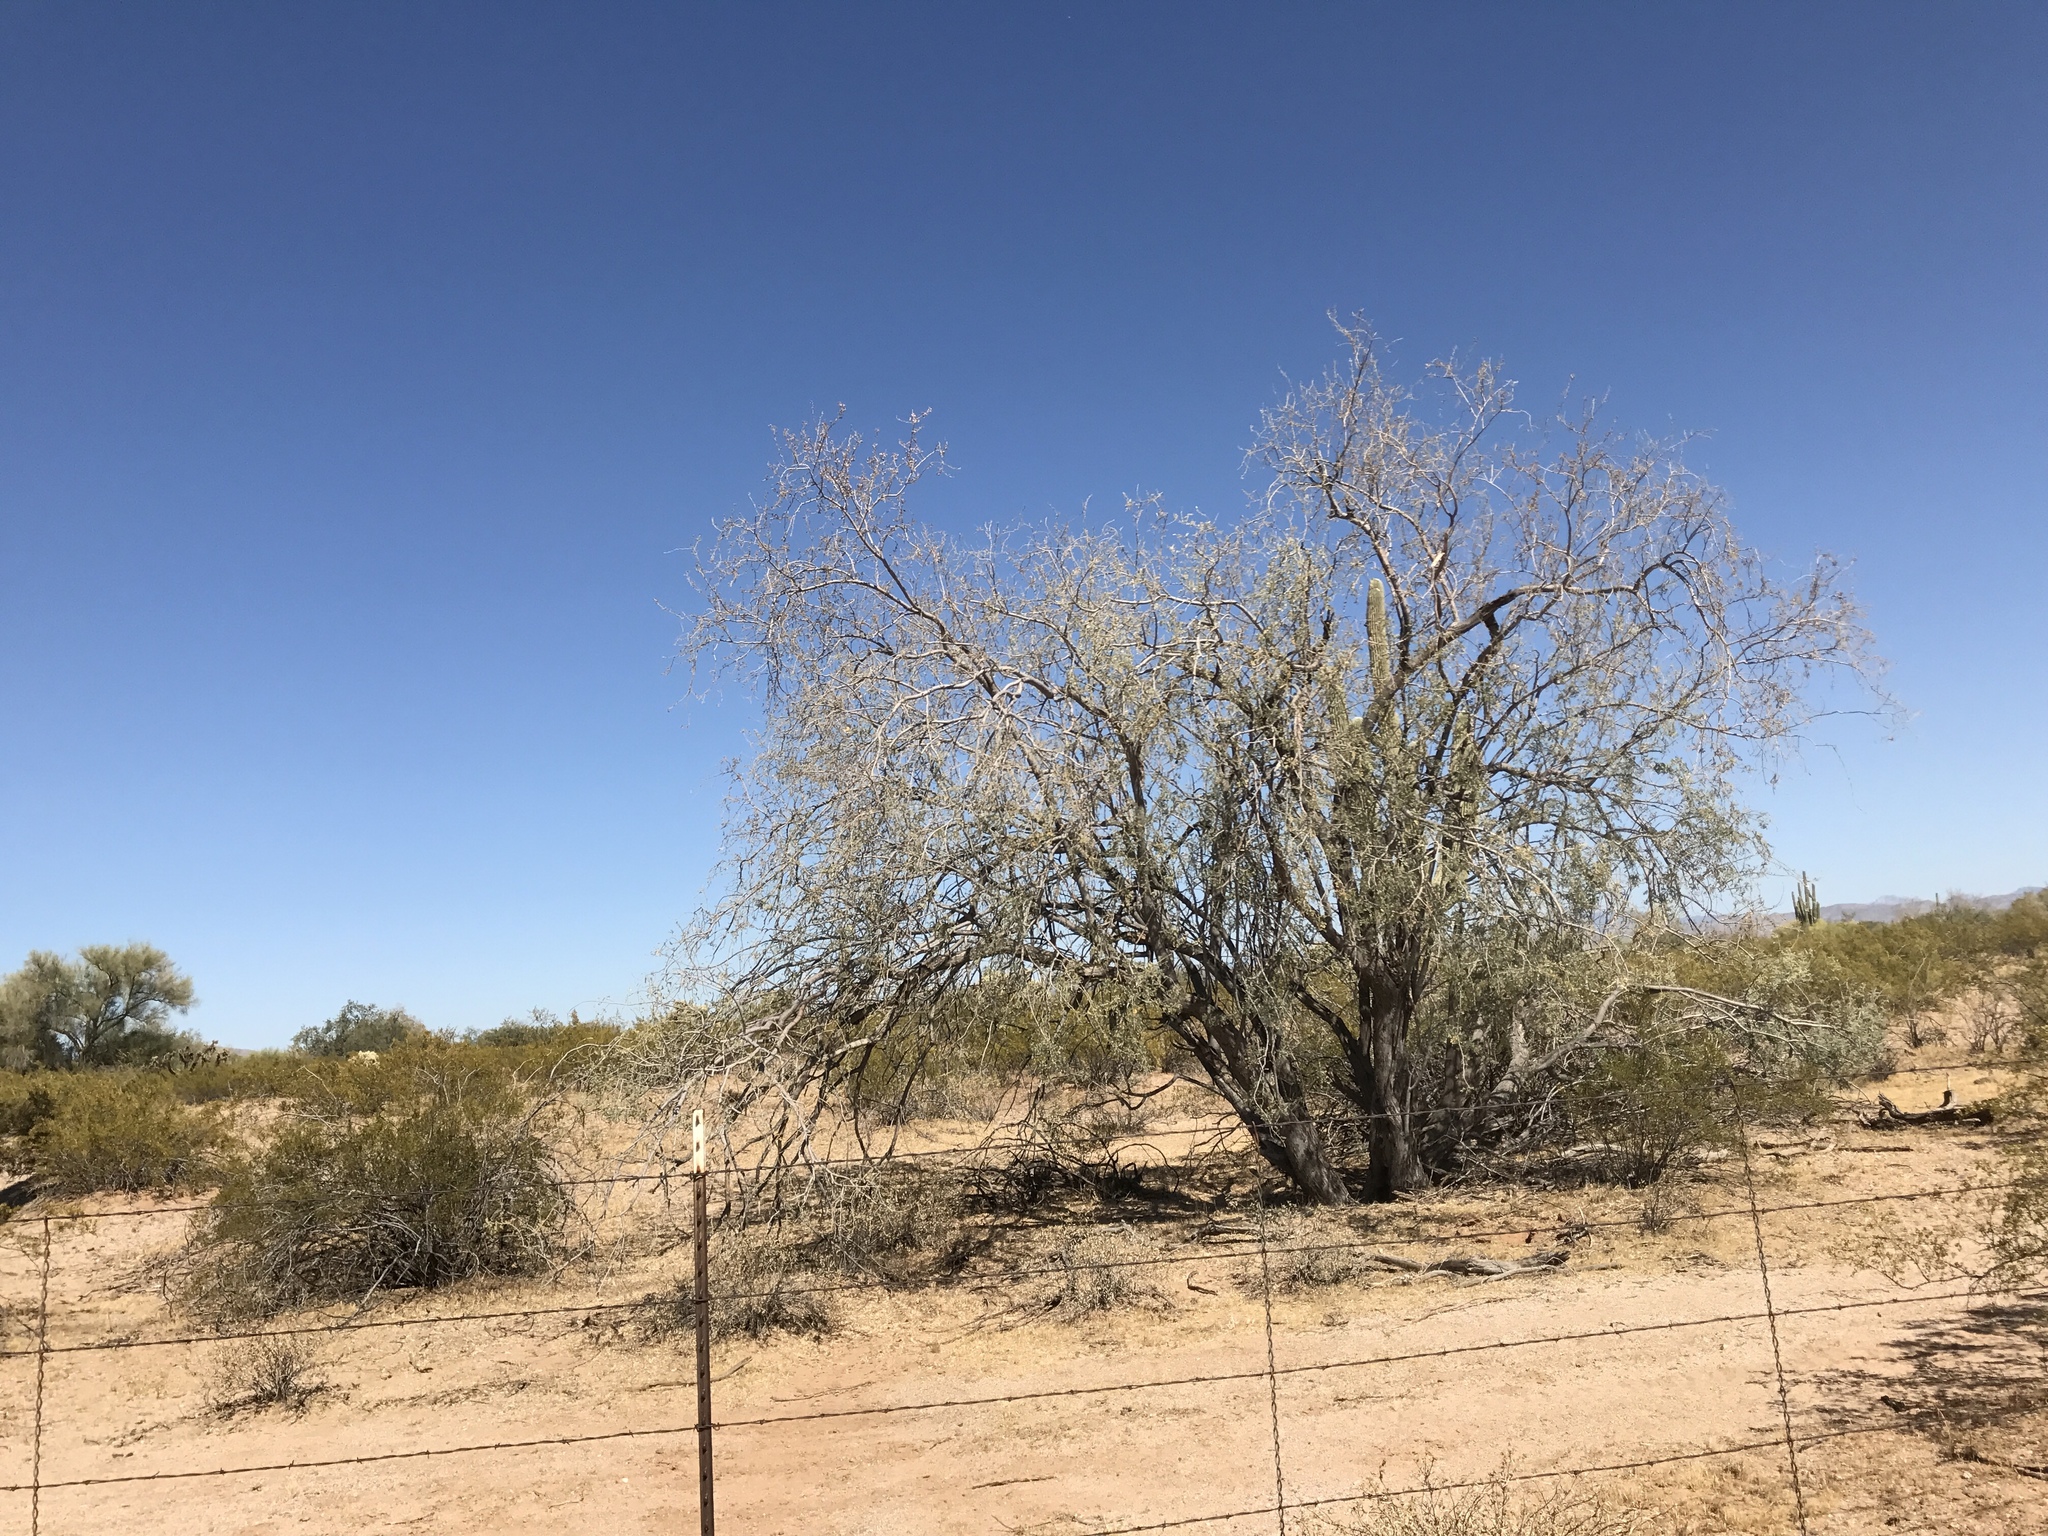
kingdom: Plantae
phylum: Tracheophyta
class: Magnoliopsida
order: Fabales
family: Fabaceae
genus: Olneya
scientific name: Olneya tesota
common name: Desert ironwood
